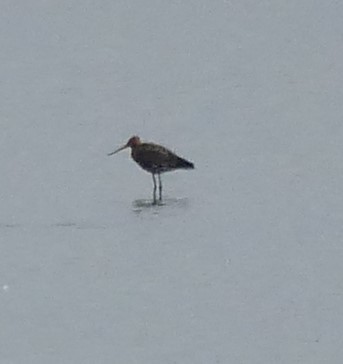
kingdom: Animalia
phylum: Chordata
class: Aves
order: Charadriiformes
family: Scolopacidae
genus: Limosa
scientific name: Limosa limosa
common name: Black-tailed godwit
